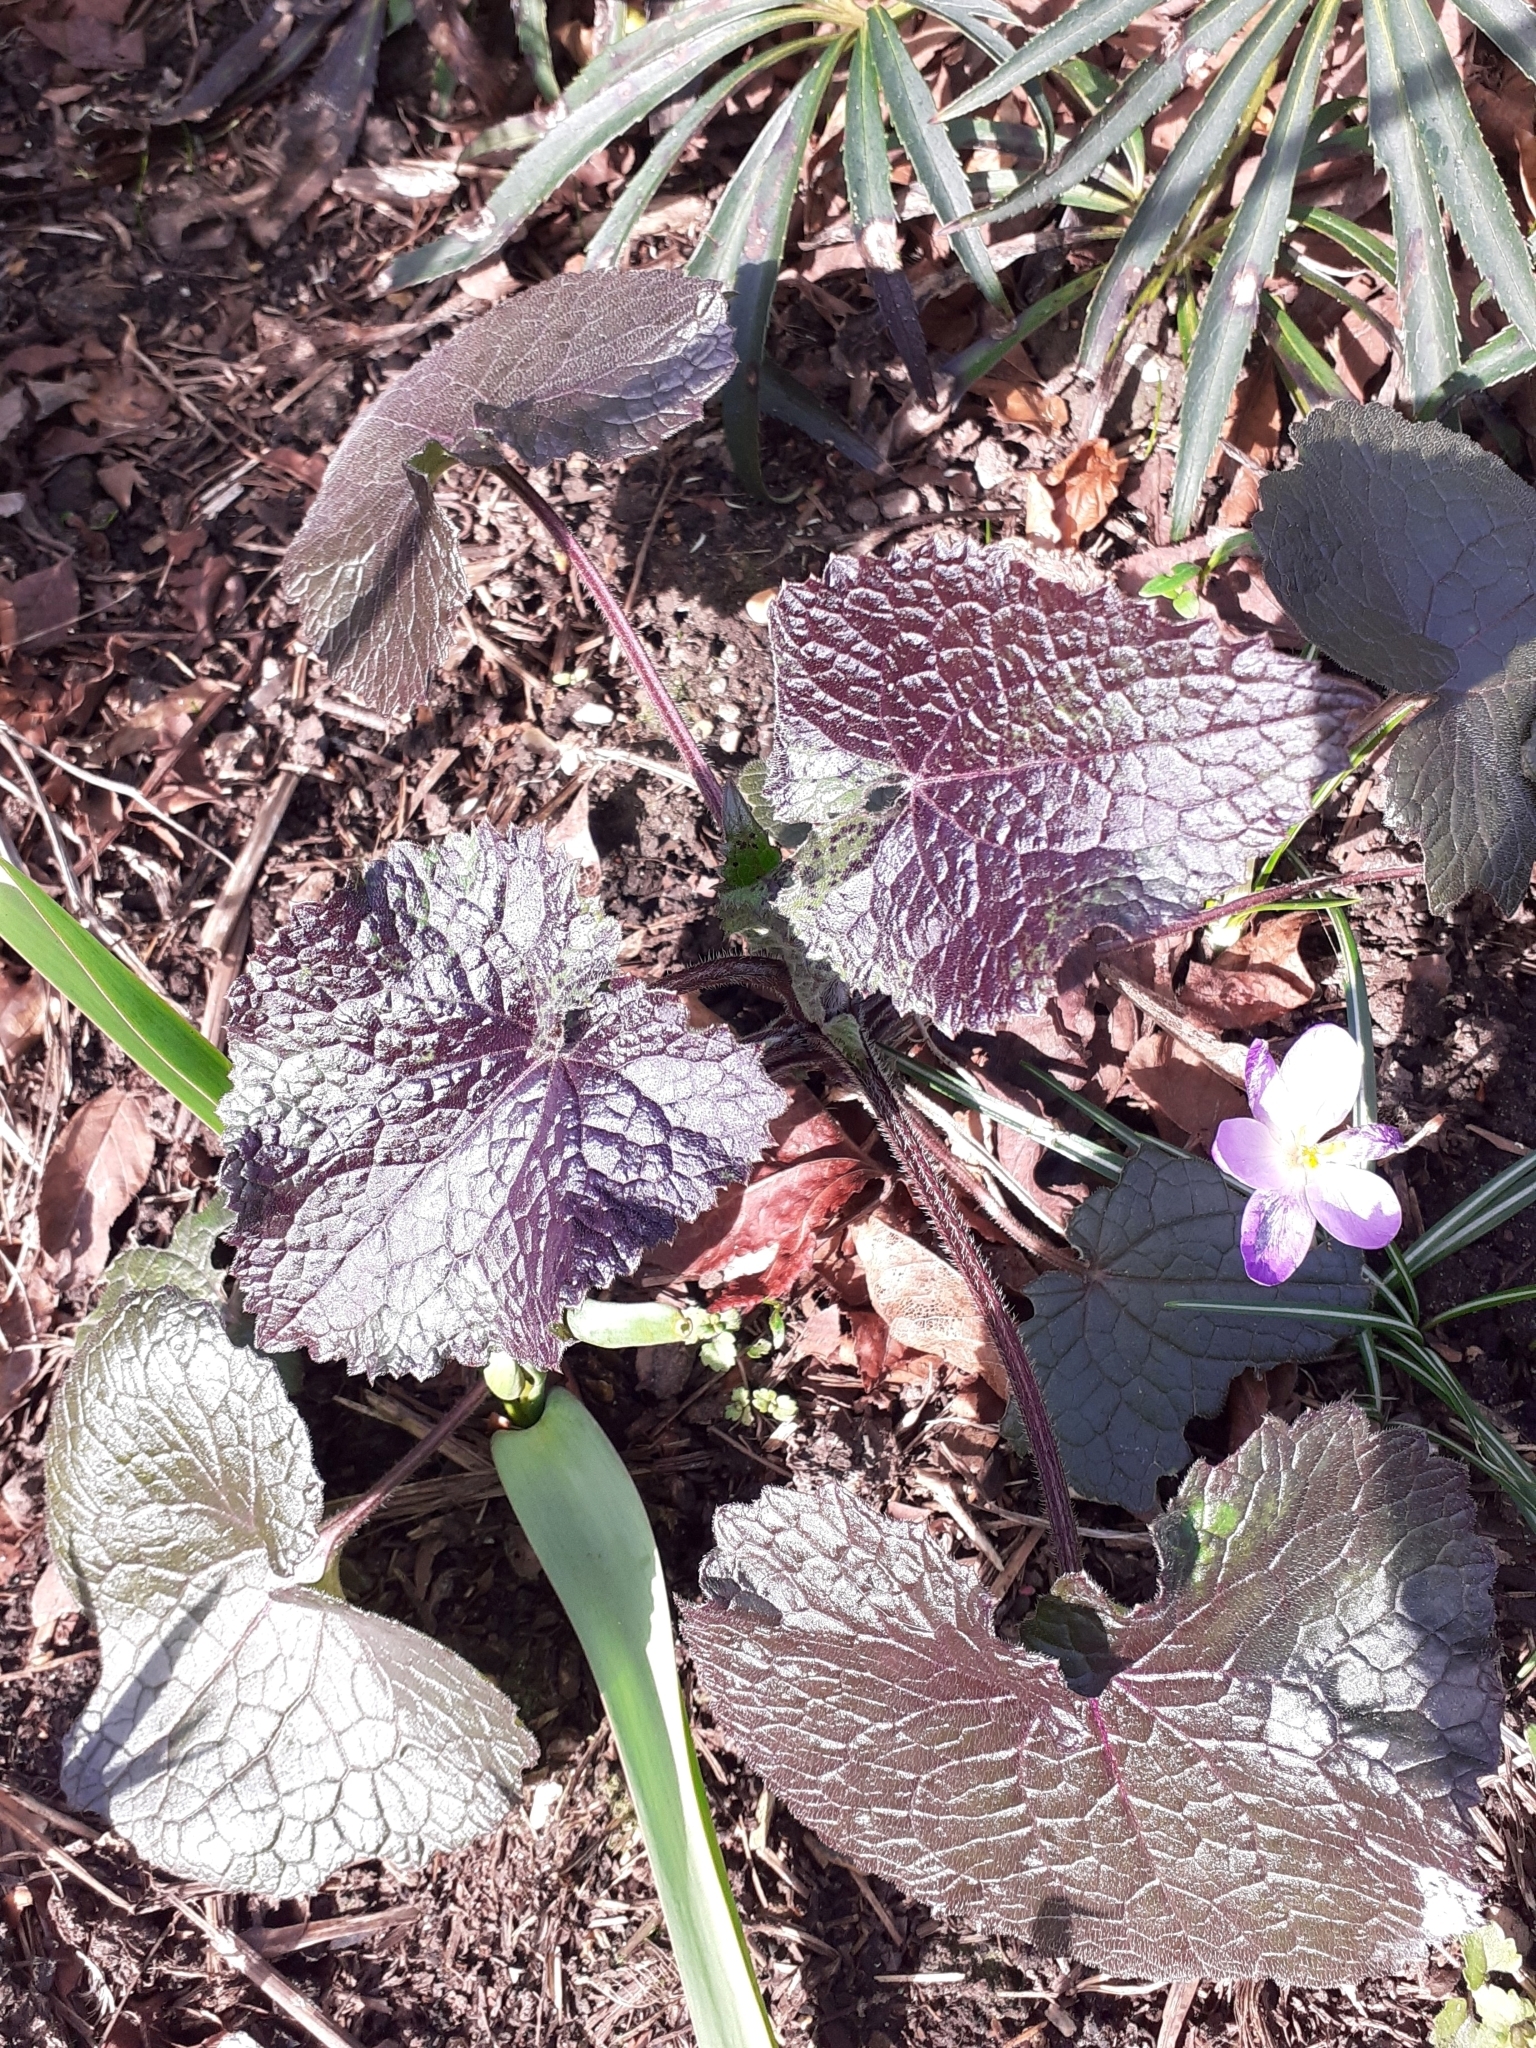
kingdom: Plantae
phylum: Tracheophyta
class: Magnoliopsida
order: Brassicales
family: Brassicaceae
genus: Lunaria
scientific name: Lunaria annua
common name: Honesty
